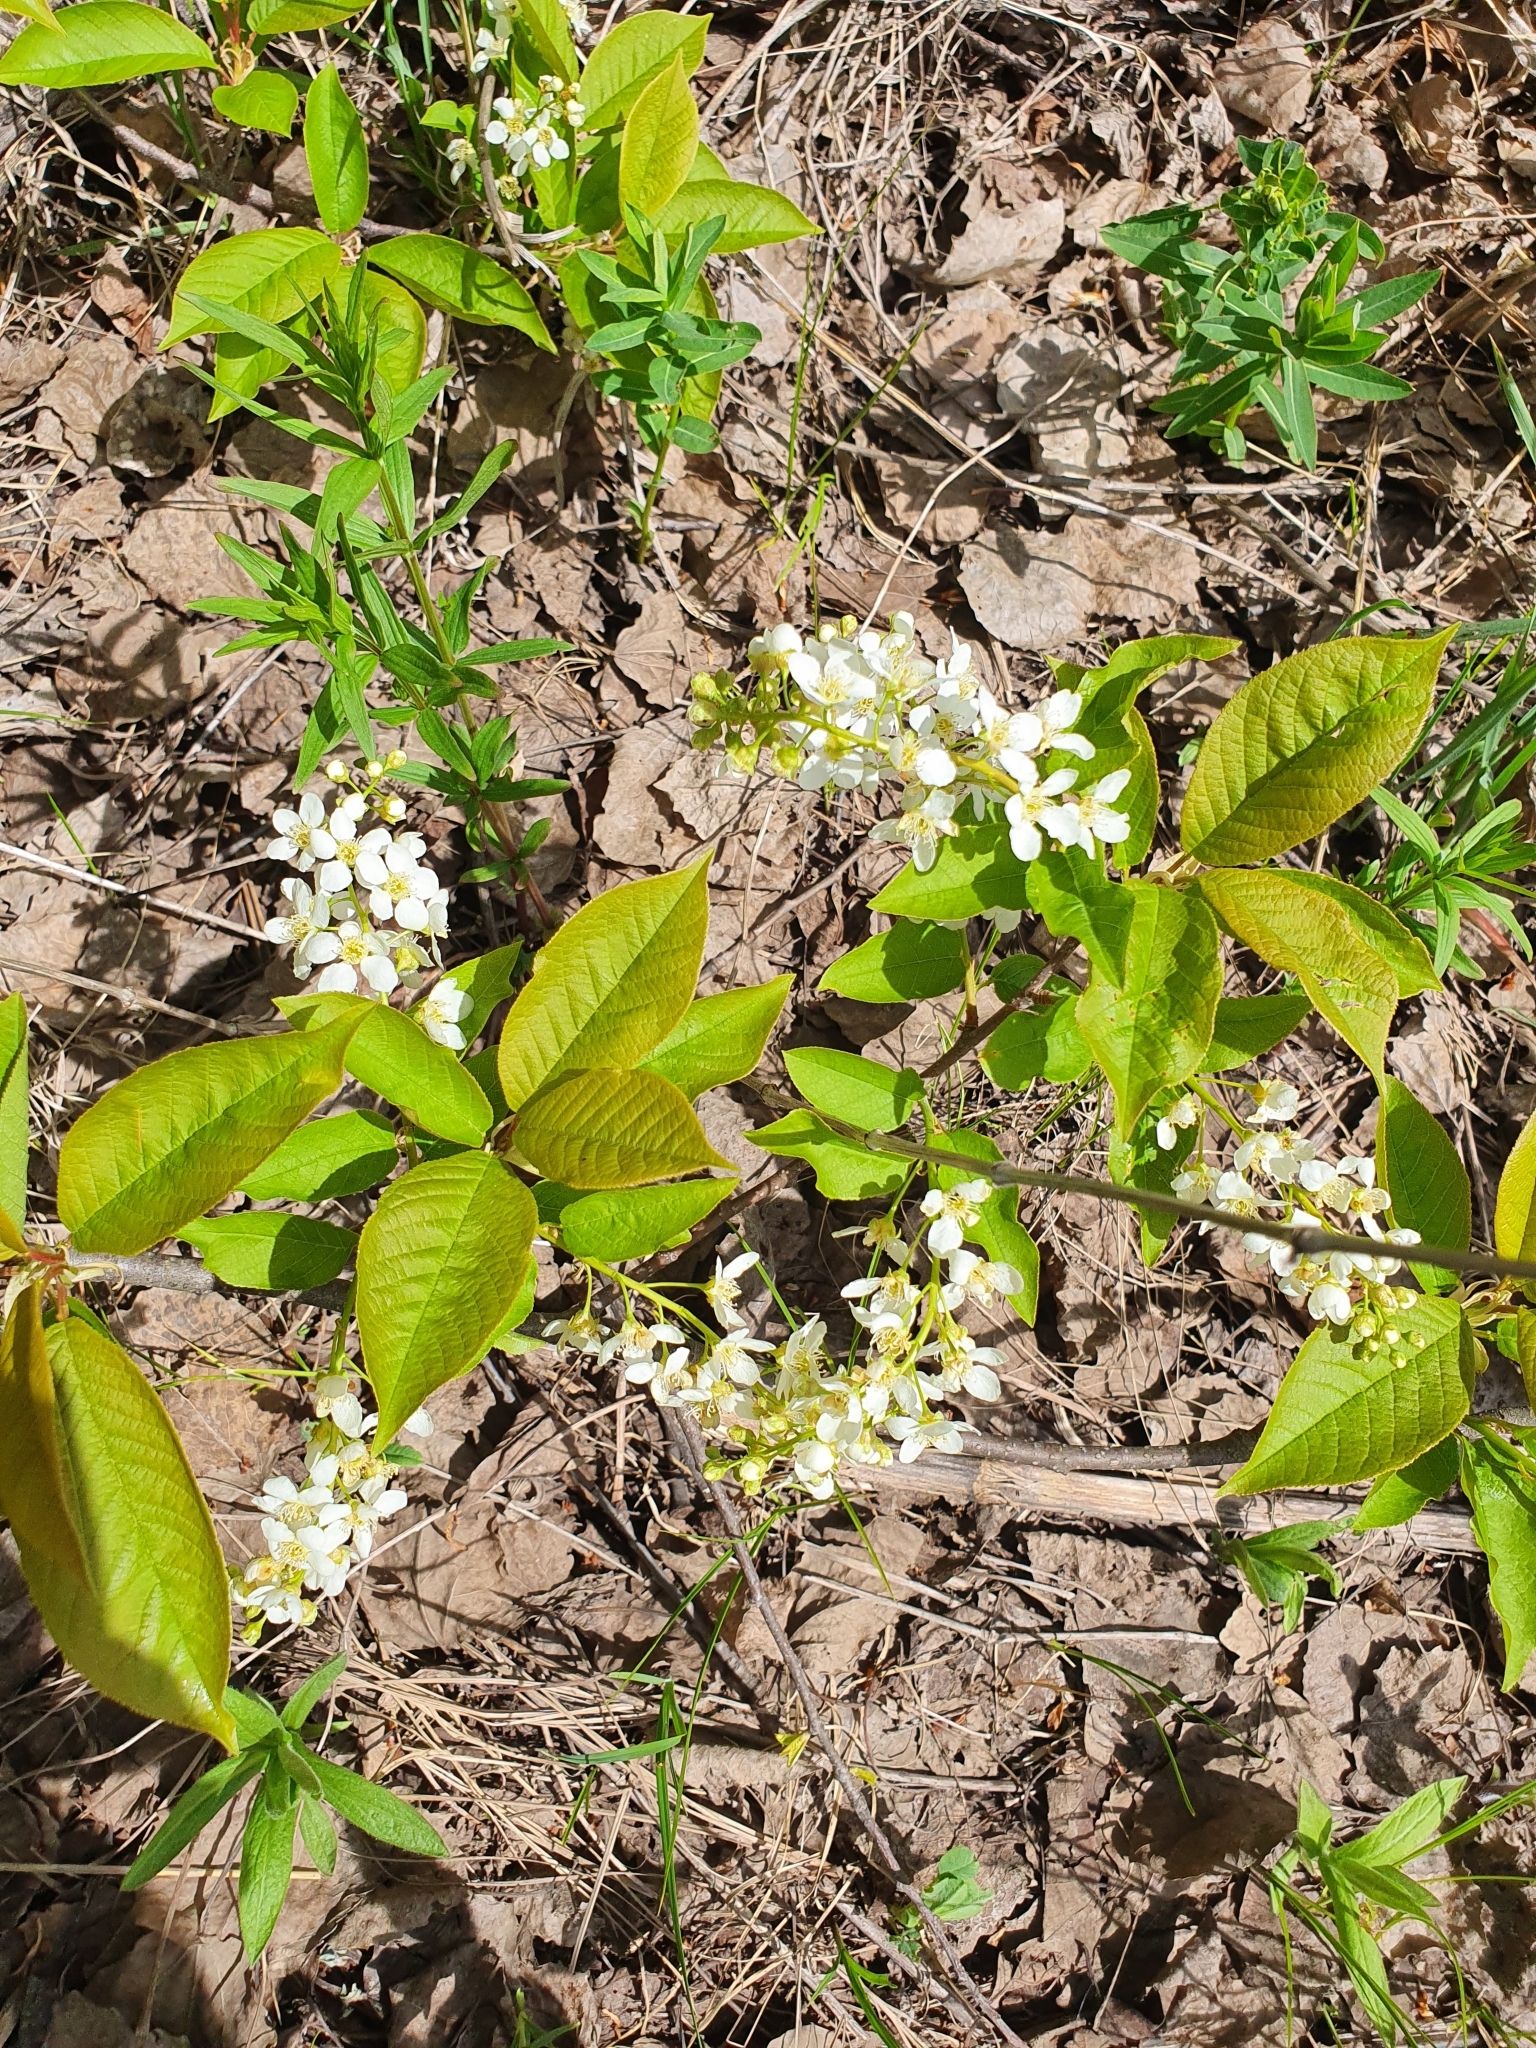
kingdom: Plantae
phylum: Tracheophyta
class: Magnoliopsida
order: Rosales
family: Rosaceae
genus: Prunus
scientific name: Prunus padus
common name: Bird cherry
